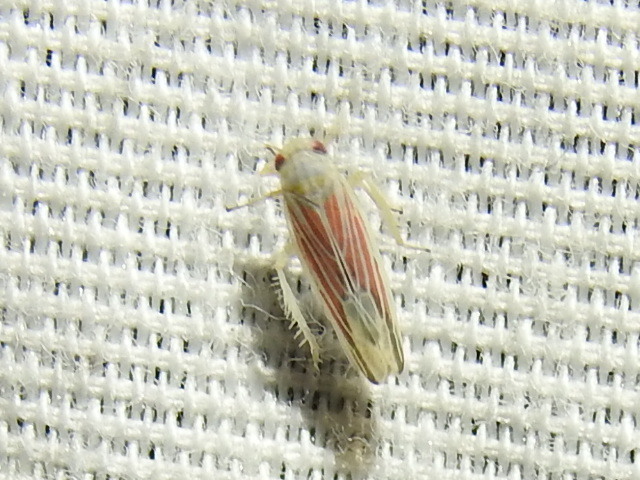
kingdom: Animalia
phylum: Arthropoda
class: Insecta
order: Hemiptera
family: Cicadellidae
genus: Balclutha
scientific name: Balclutha rubrostriata
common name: Red-streaked leafhopper
